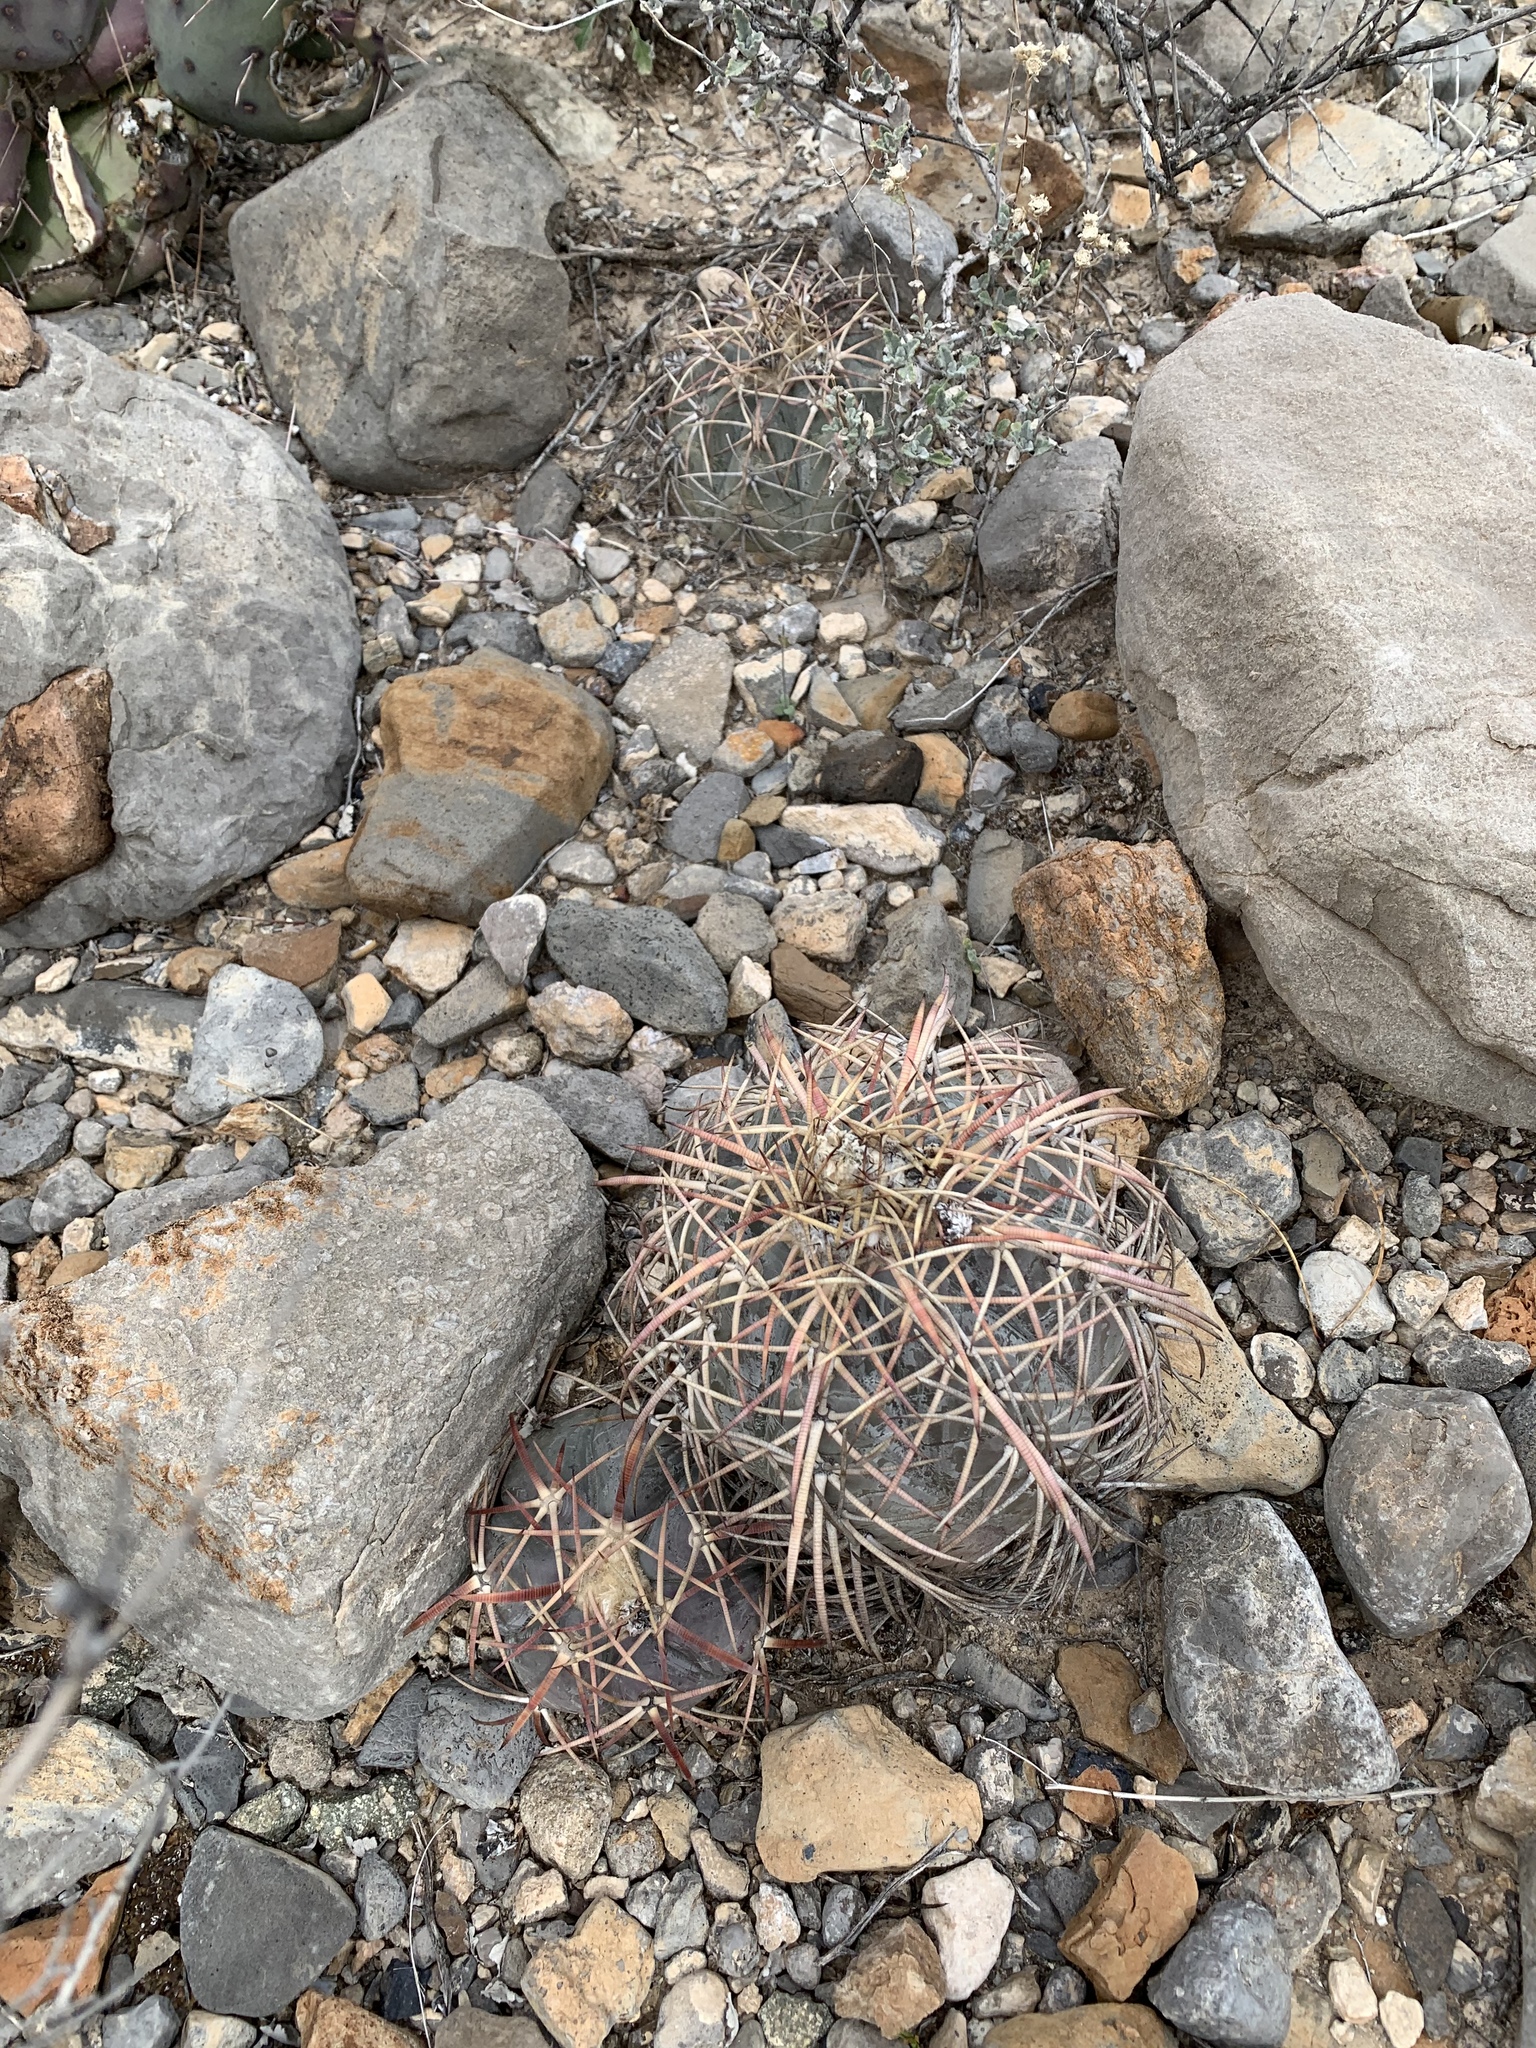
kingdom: Plantae
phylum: Tracheophyta
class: Magnoliopsida
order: Caryophyllales
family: Cactaceae
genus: Echinocactus
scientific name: Echinocactus horizonthalonius
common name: Devilshead
